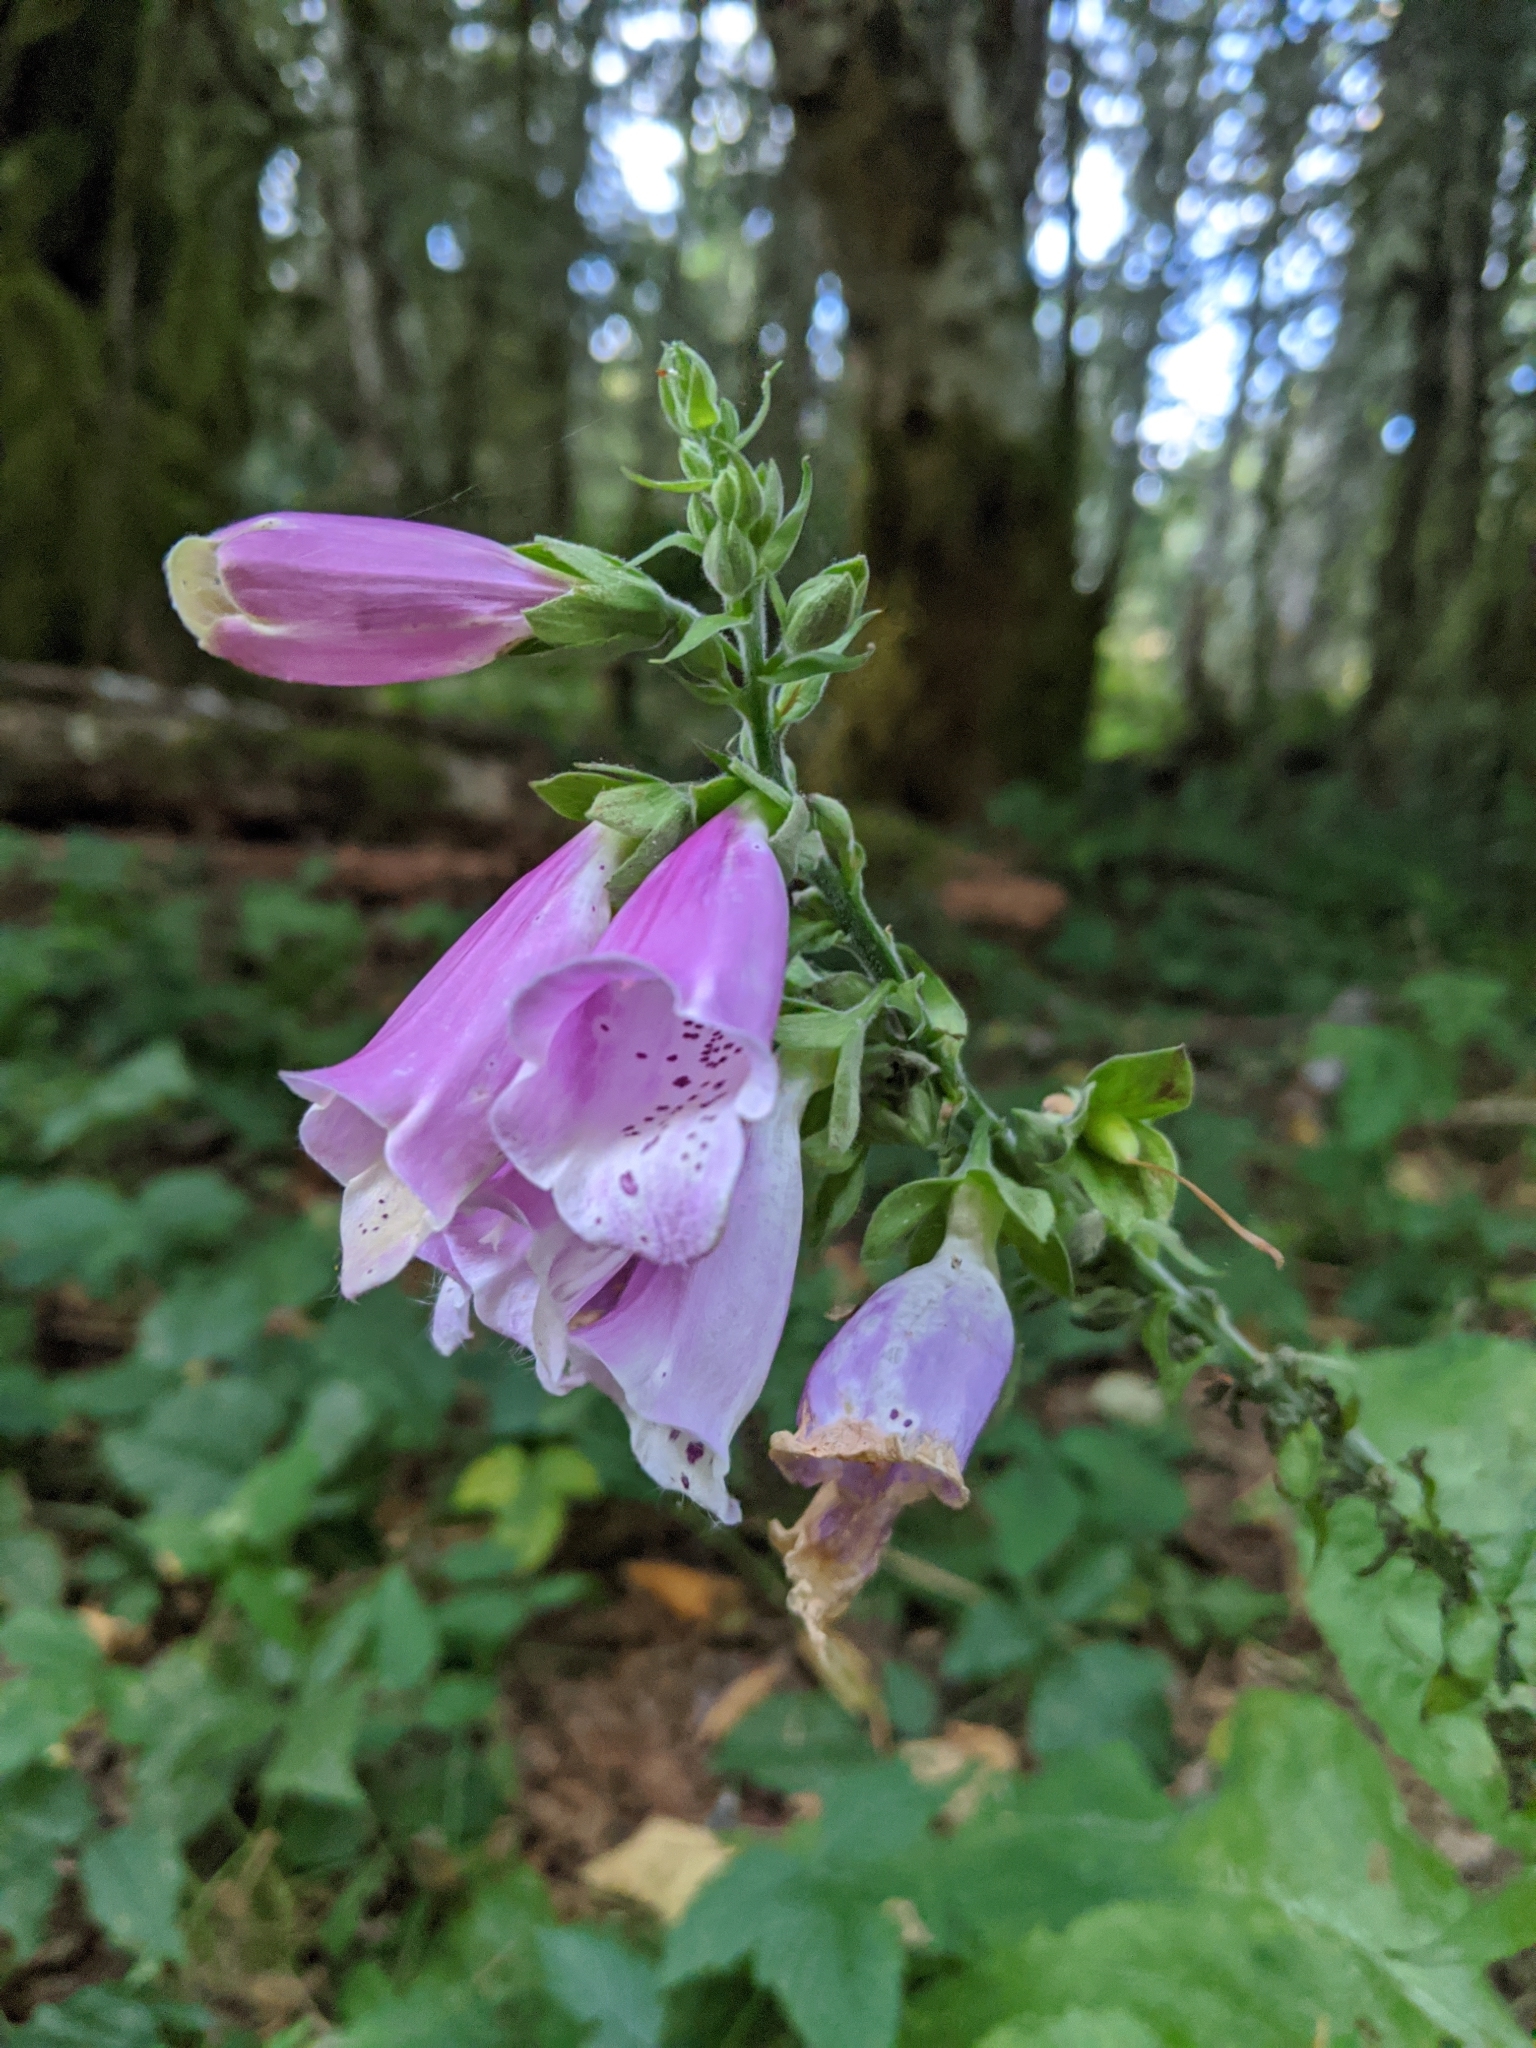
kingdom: Plantae
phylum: Tracheophyta
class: Magnoliopsida
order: Lamiales
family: Plantaginaceae
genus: Digitalis
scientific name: Digitalis purpurea
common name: Foxglove
